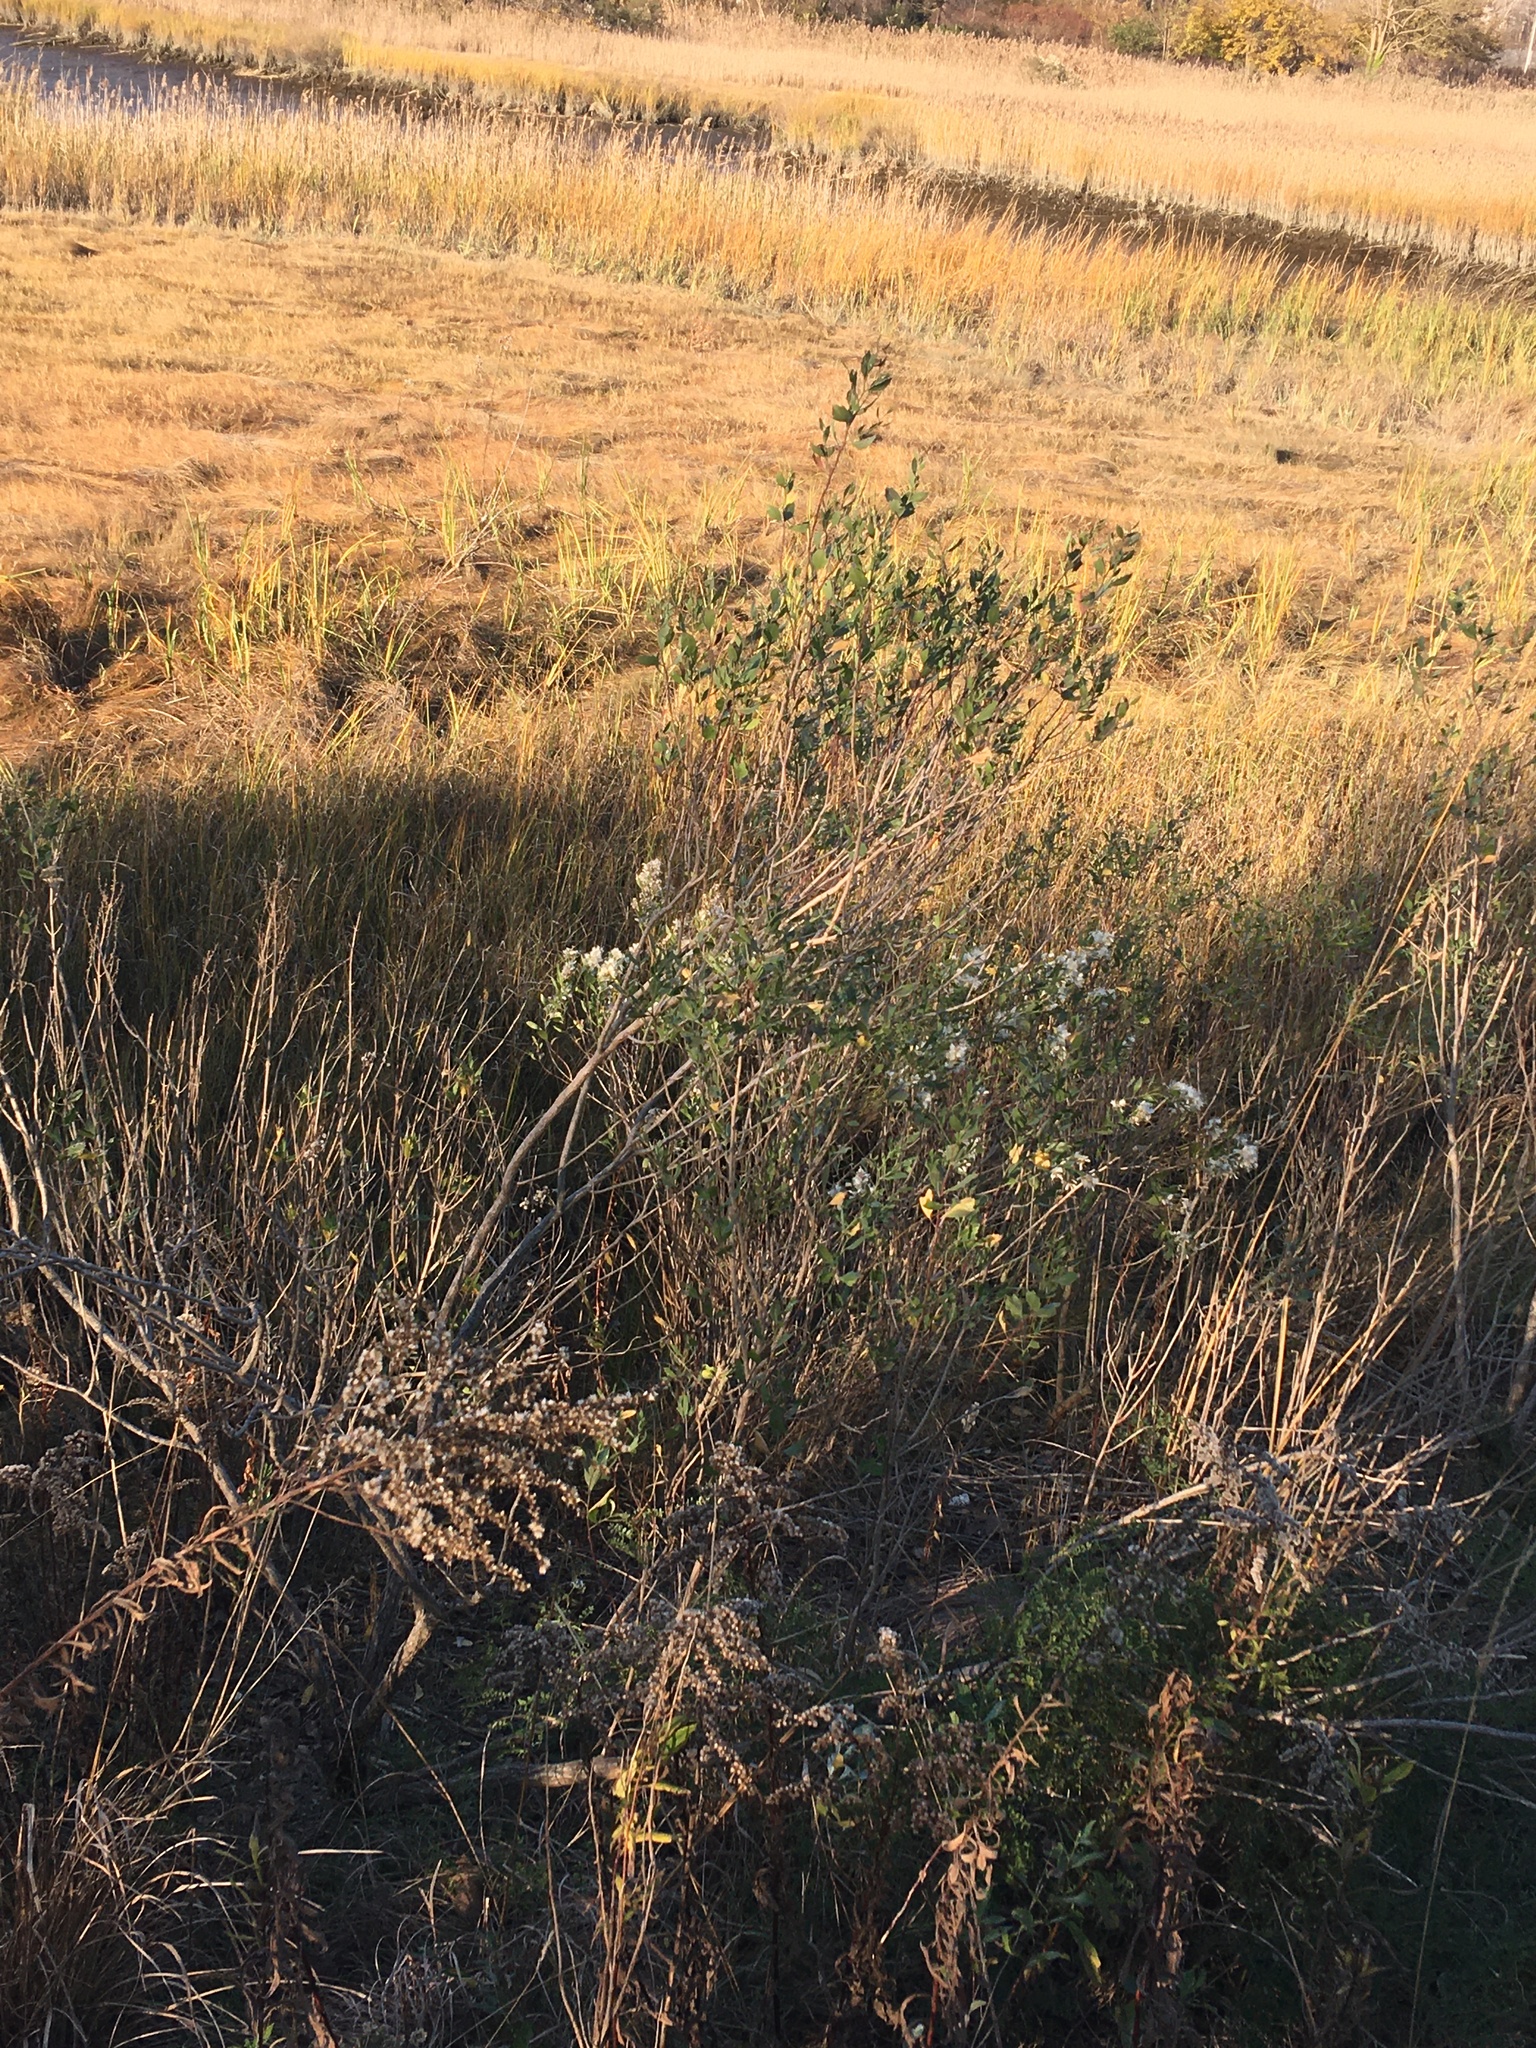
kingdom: Plantae
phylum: Tracheophyta
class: Magnoliopsida
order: Asterales
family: Asteraceae
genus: Baccharis
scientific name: Baccharis halimifolia
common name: Eastern baccharis
